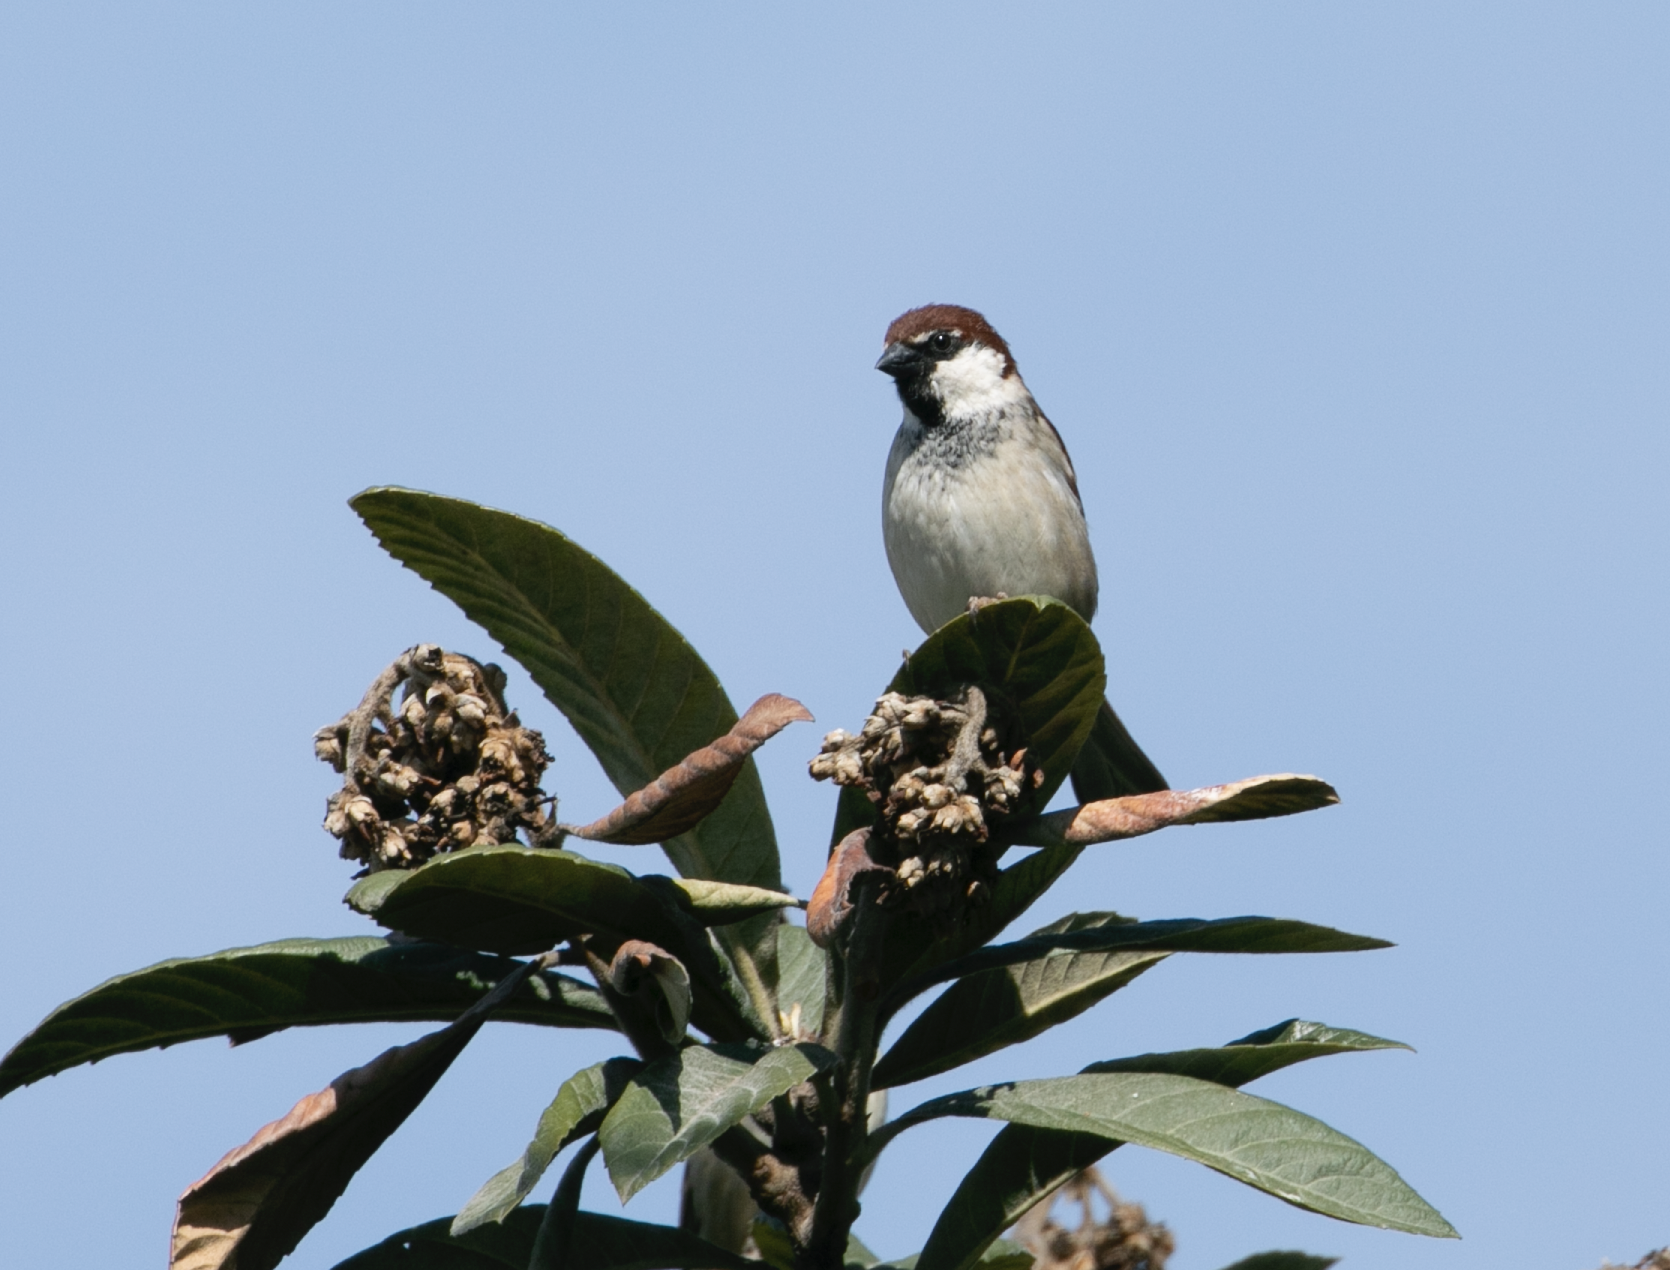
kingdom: Animalia
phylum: Chordata
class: Aves
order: Passeriformes
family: Passeridae
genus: Passer
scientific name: Passer italiae
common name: Italian sparrow
